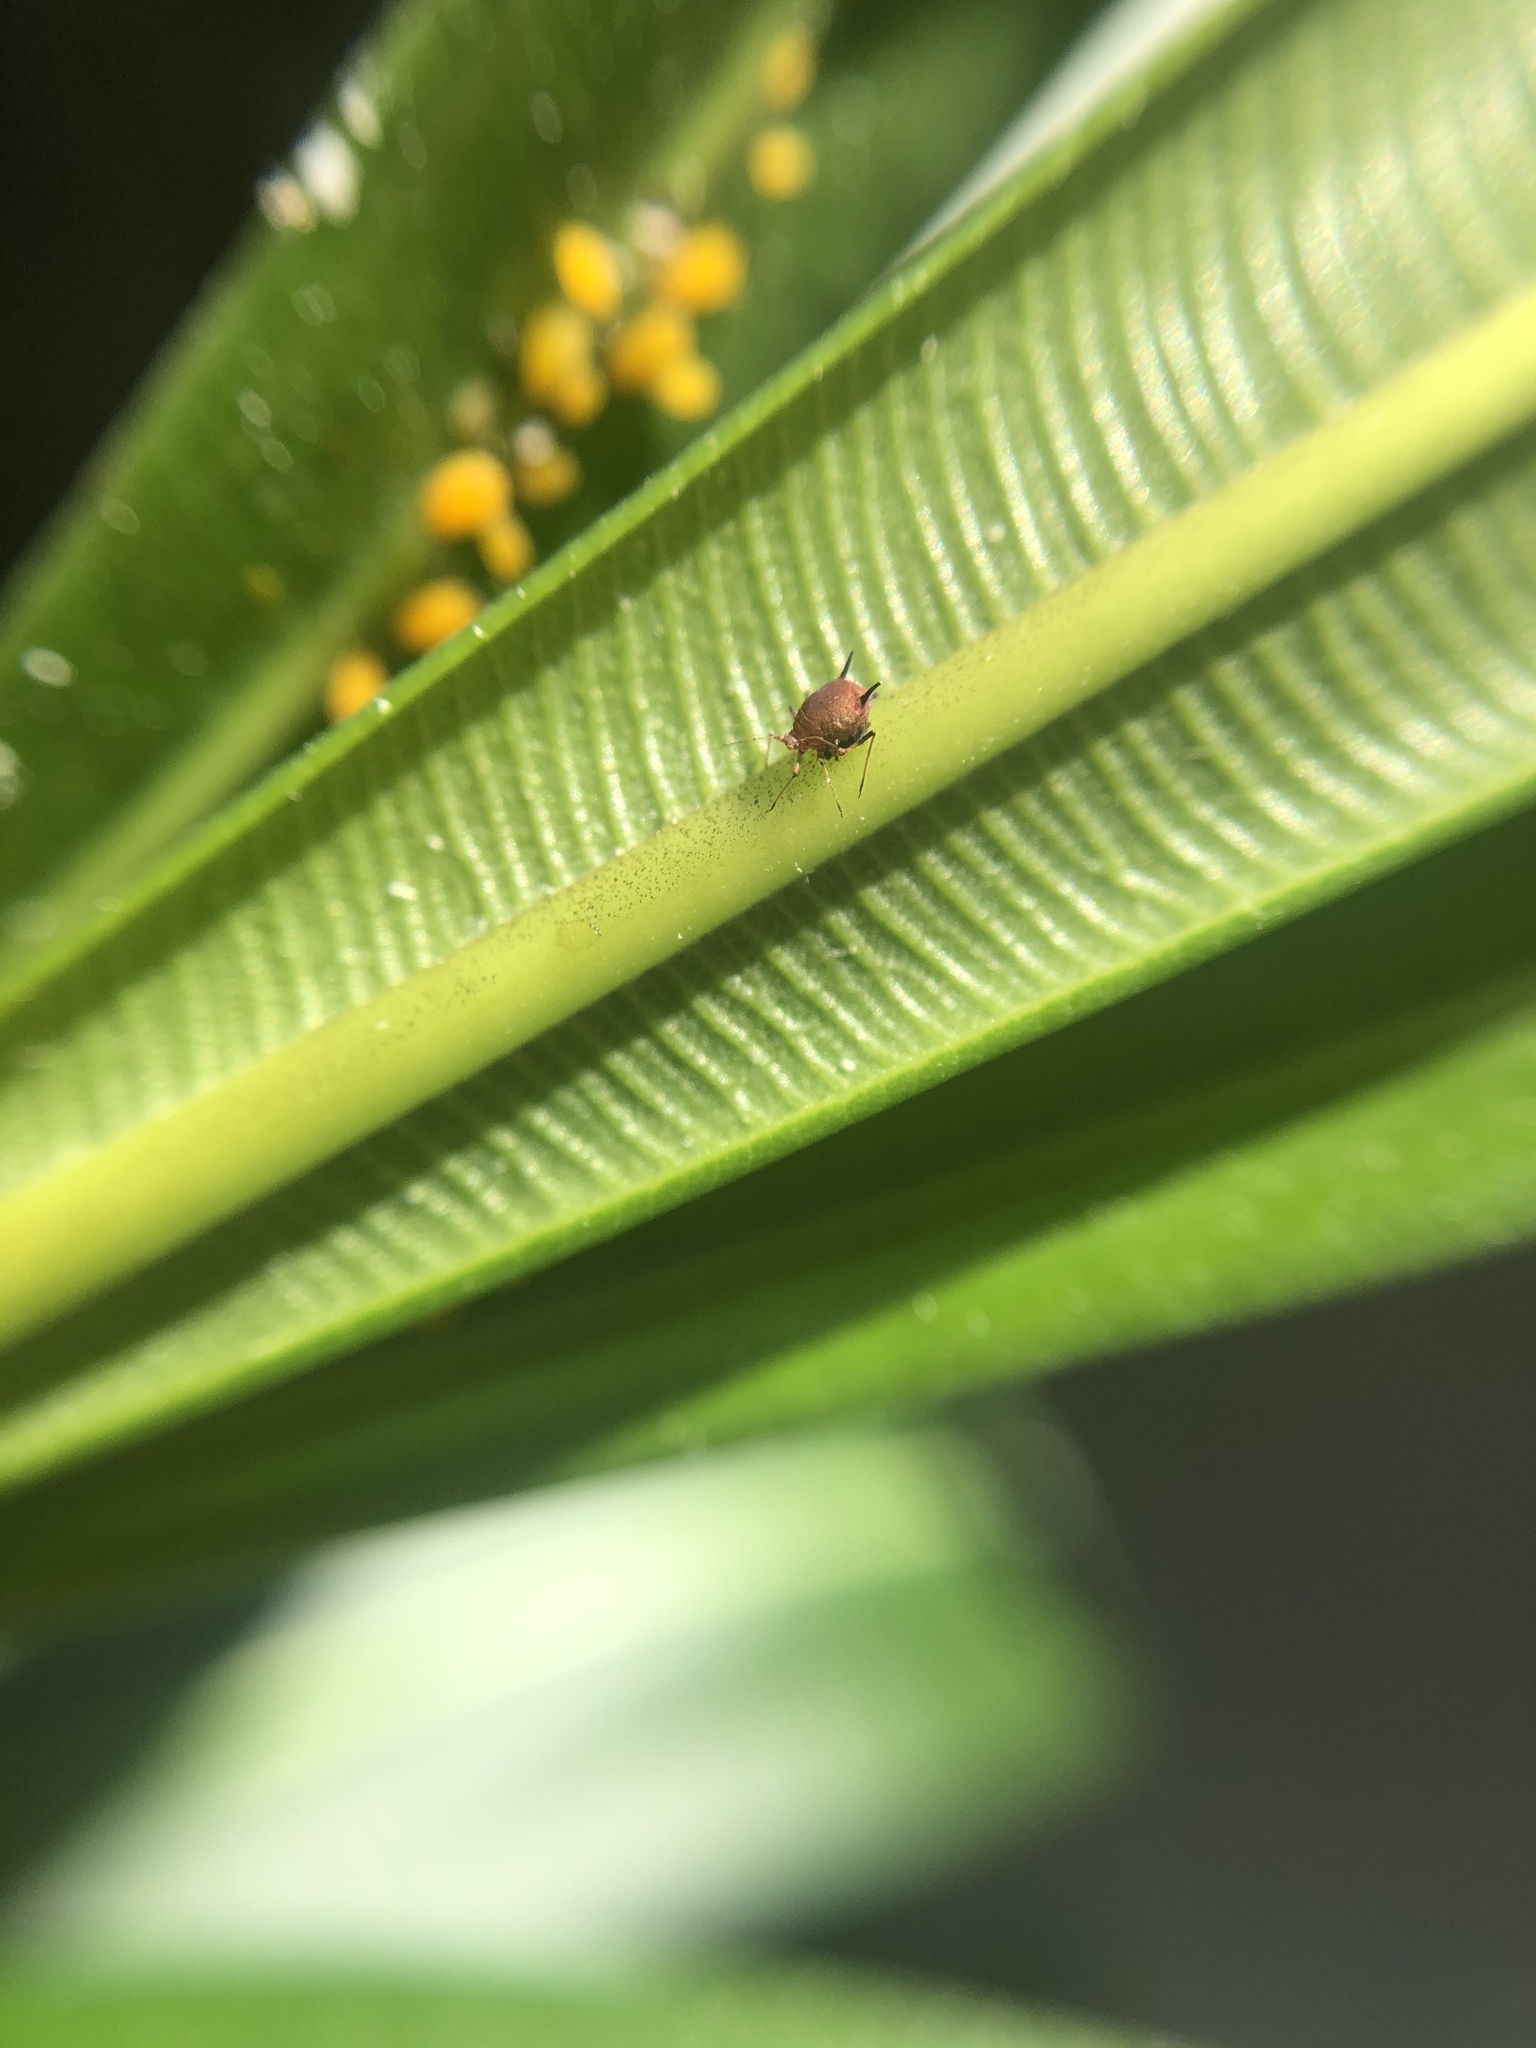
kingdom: Animalia
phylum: Arthropoda
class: Insecta
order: Hemiptera
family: Aphididae
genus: Aphis
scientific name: Aphis nerii
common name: Oleander aphid
